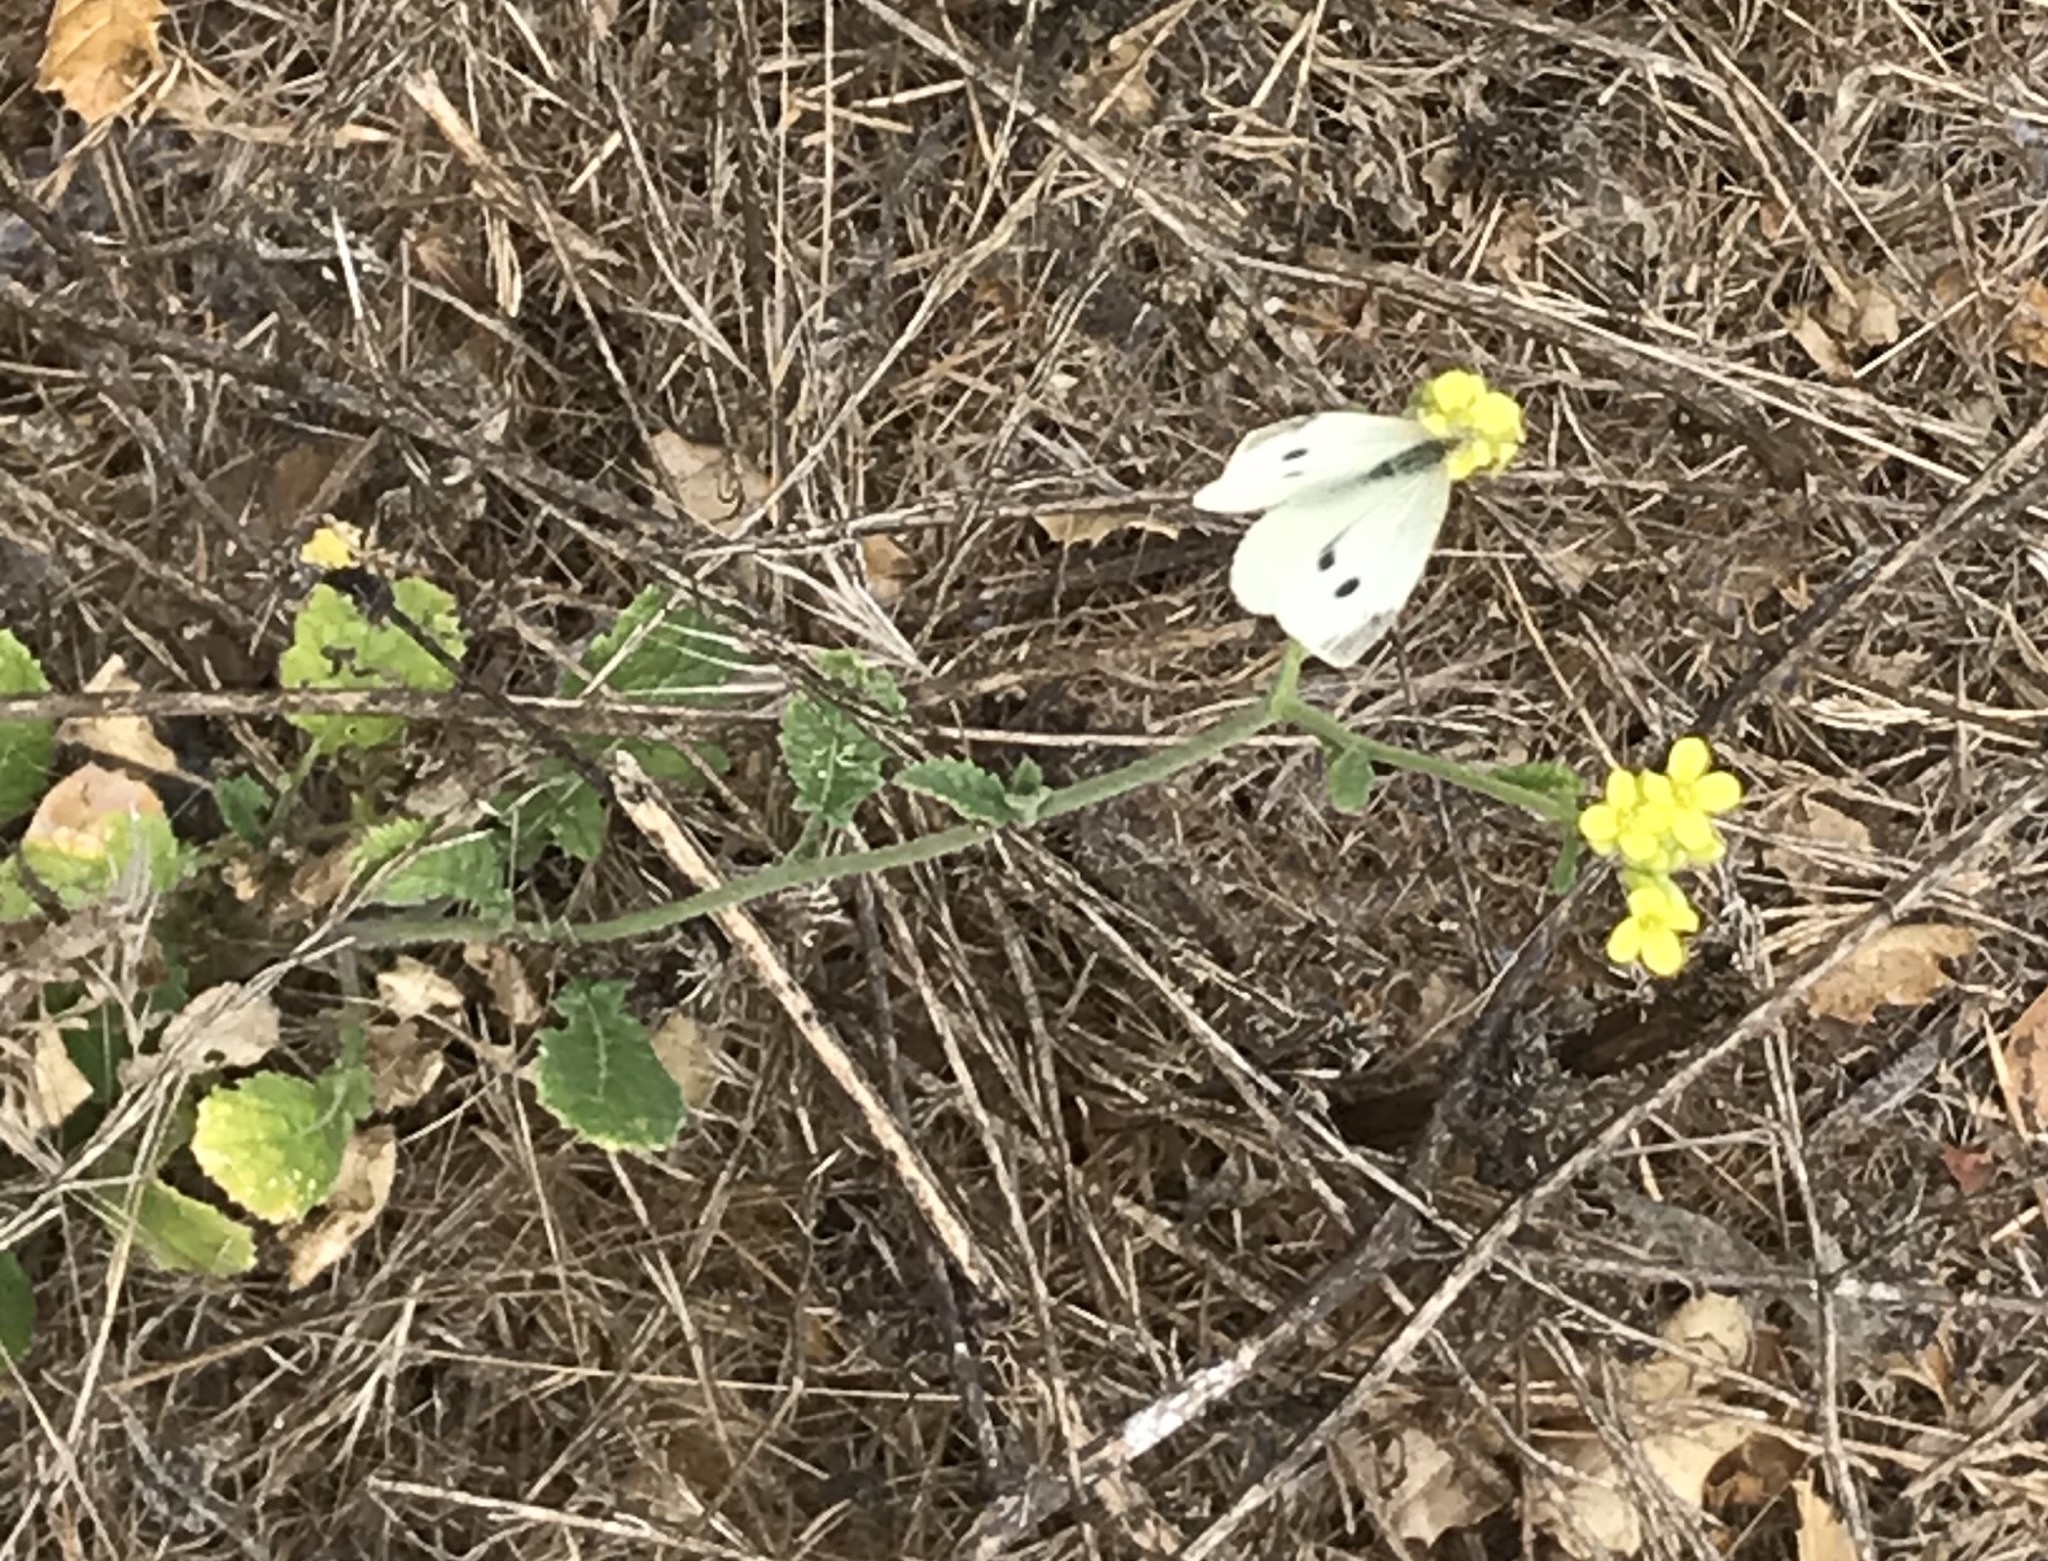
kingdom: Plantae
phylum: Tracheophyta
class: Magnoliopsida
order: Brassicales
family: Brassicaceae
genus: Hirschfeldia
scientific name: Hirschfeldia incana
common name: Hoary mustard
